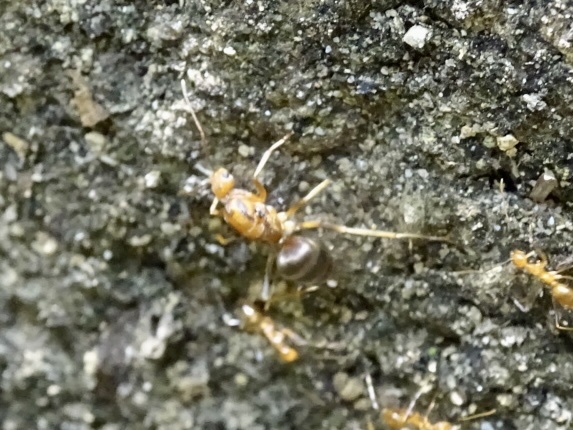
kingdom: Animalia
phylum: Arthropoda
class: Insecta
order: Hymenoptera
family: Formicidae
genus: Anoplolepis
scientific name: Anoplolepis gracilipes
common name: Ant
